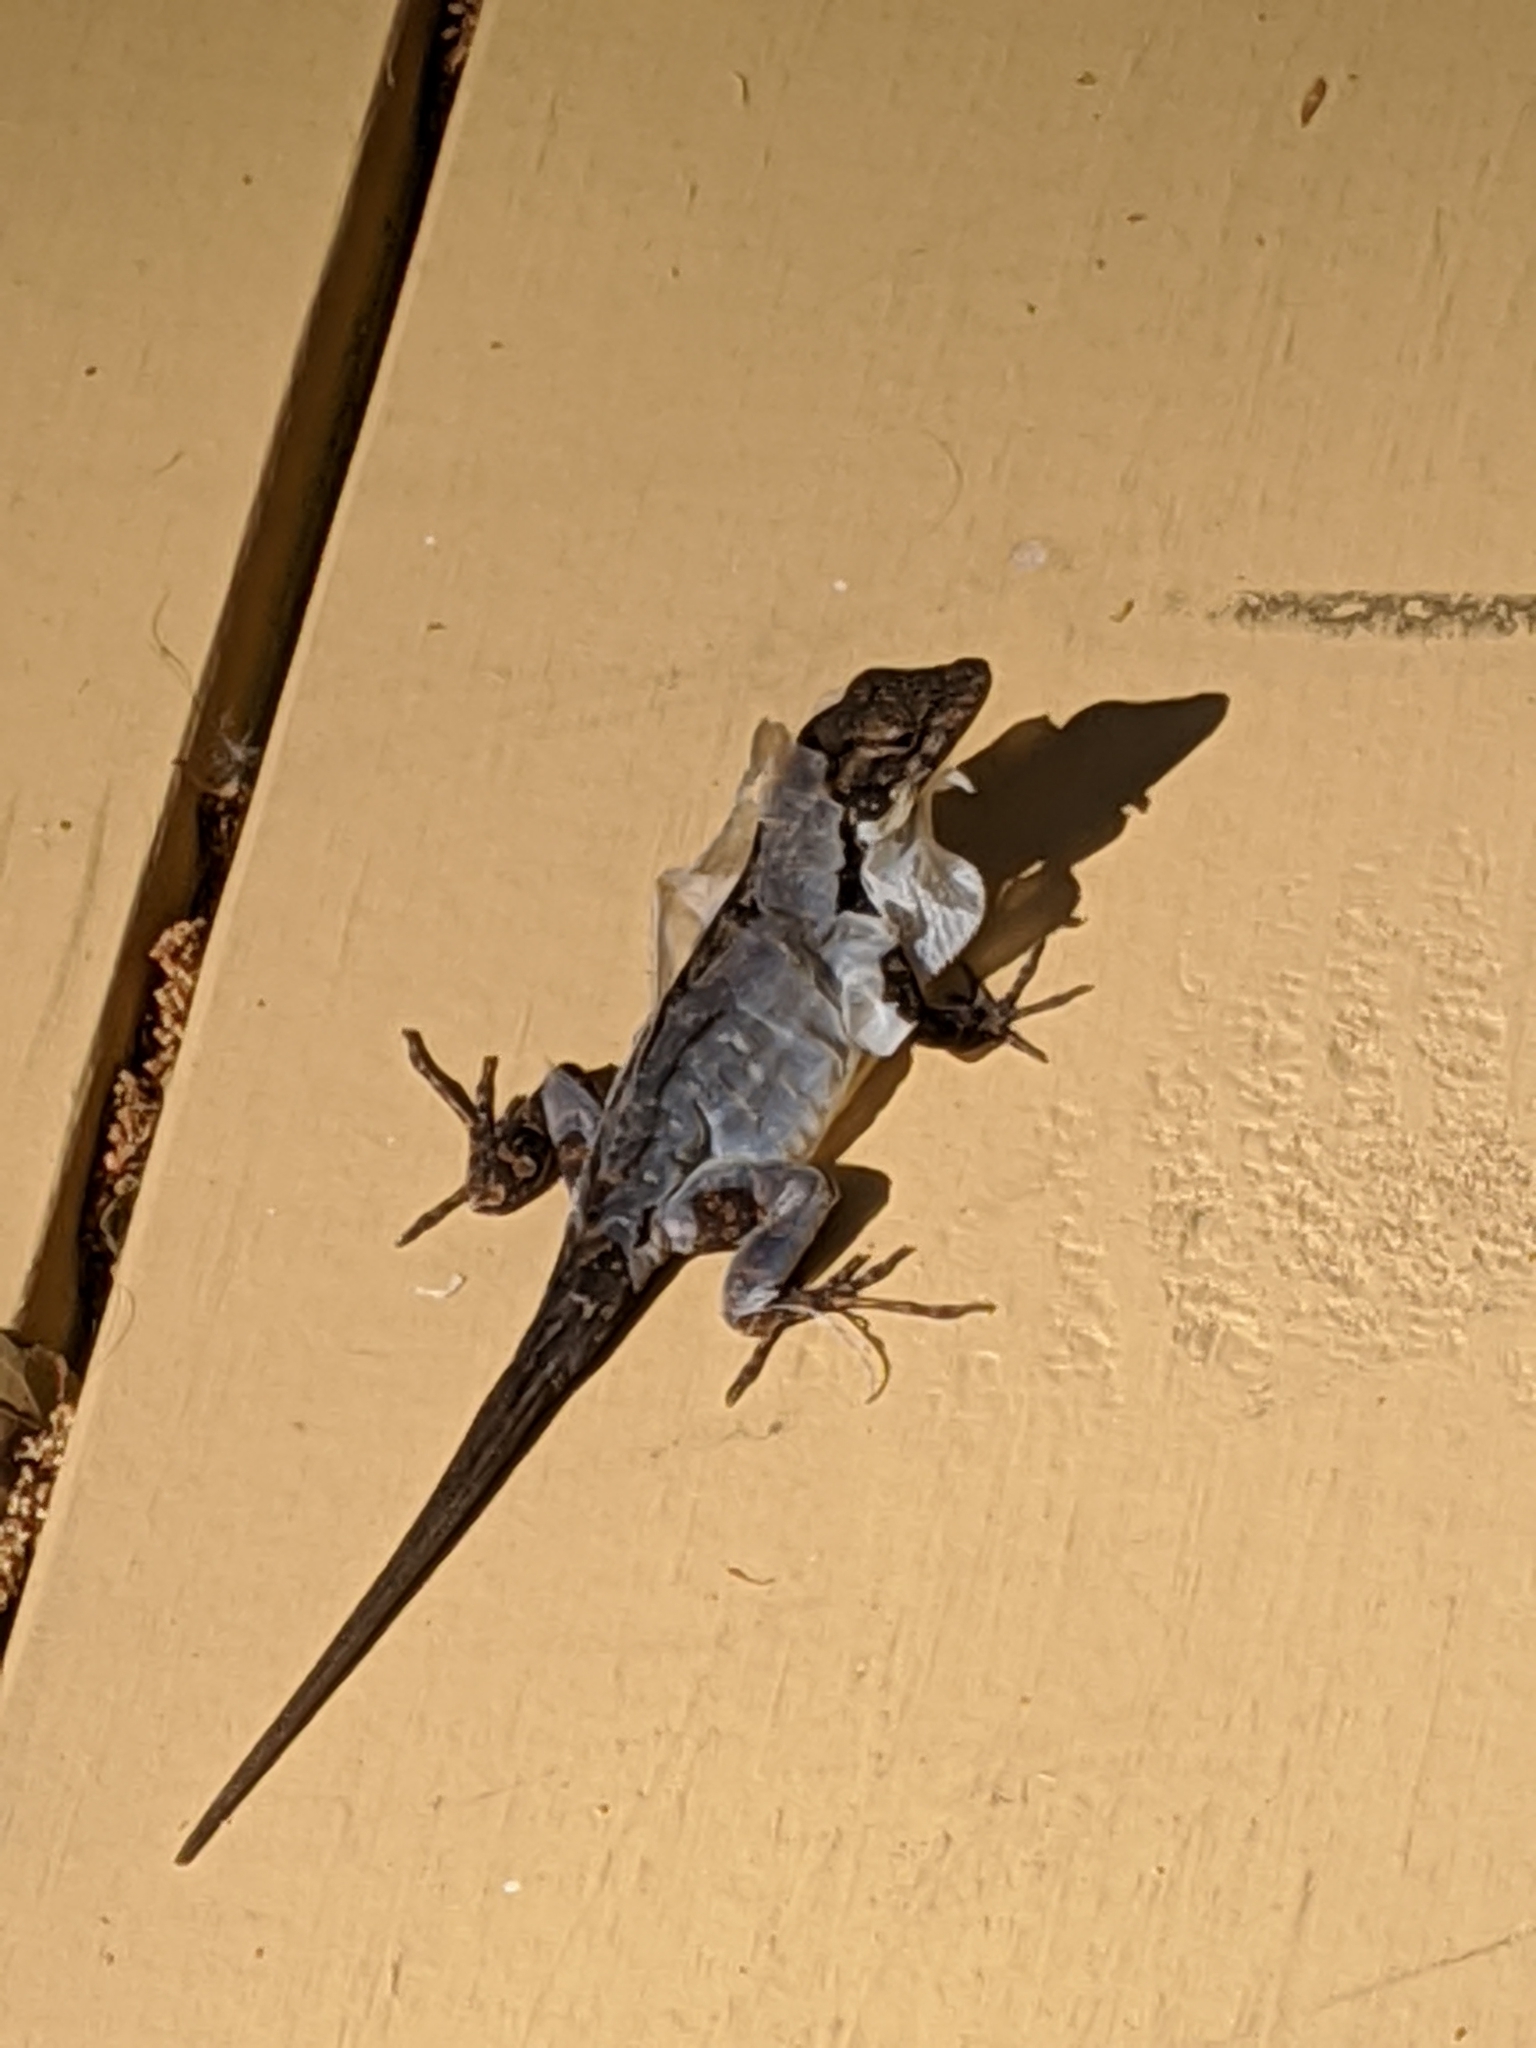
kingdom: Animalia
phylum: Chordata
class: Squamata
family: Dactyloidae
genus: Anolis
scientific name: Anolis sagrei
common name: Brown anole
